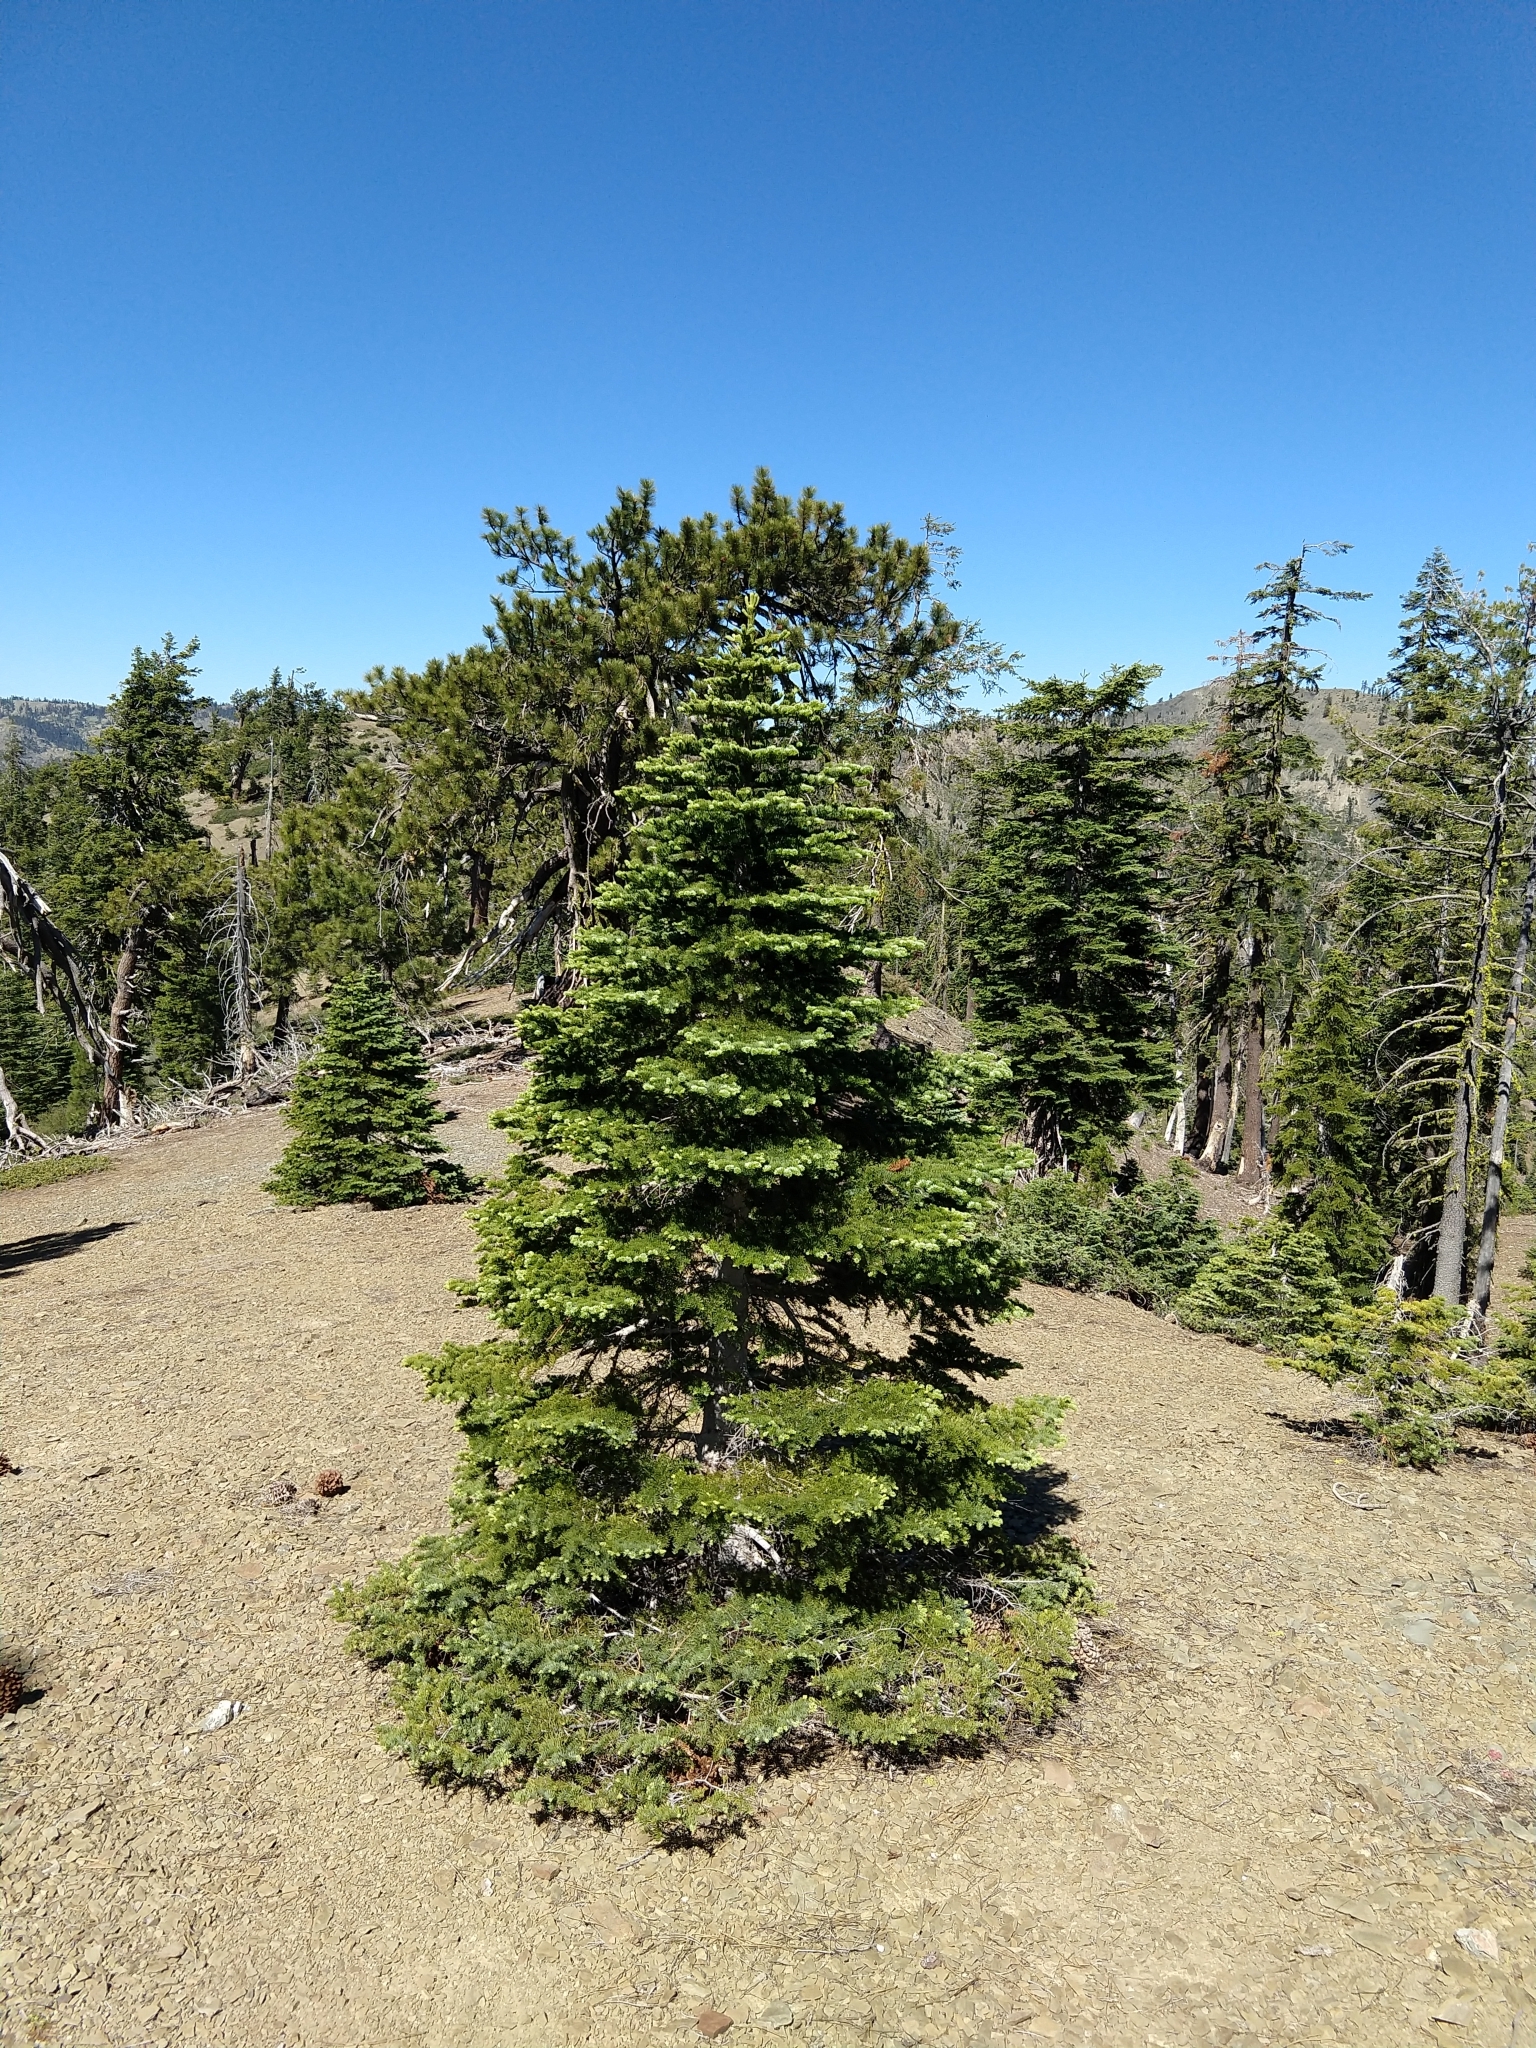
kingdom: Plantae
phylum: Tracheophyta
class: Pinopsida
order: Pinales
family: Pinaceae
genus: Abies
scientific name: Abies magnifica bis
